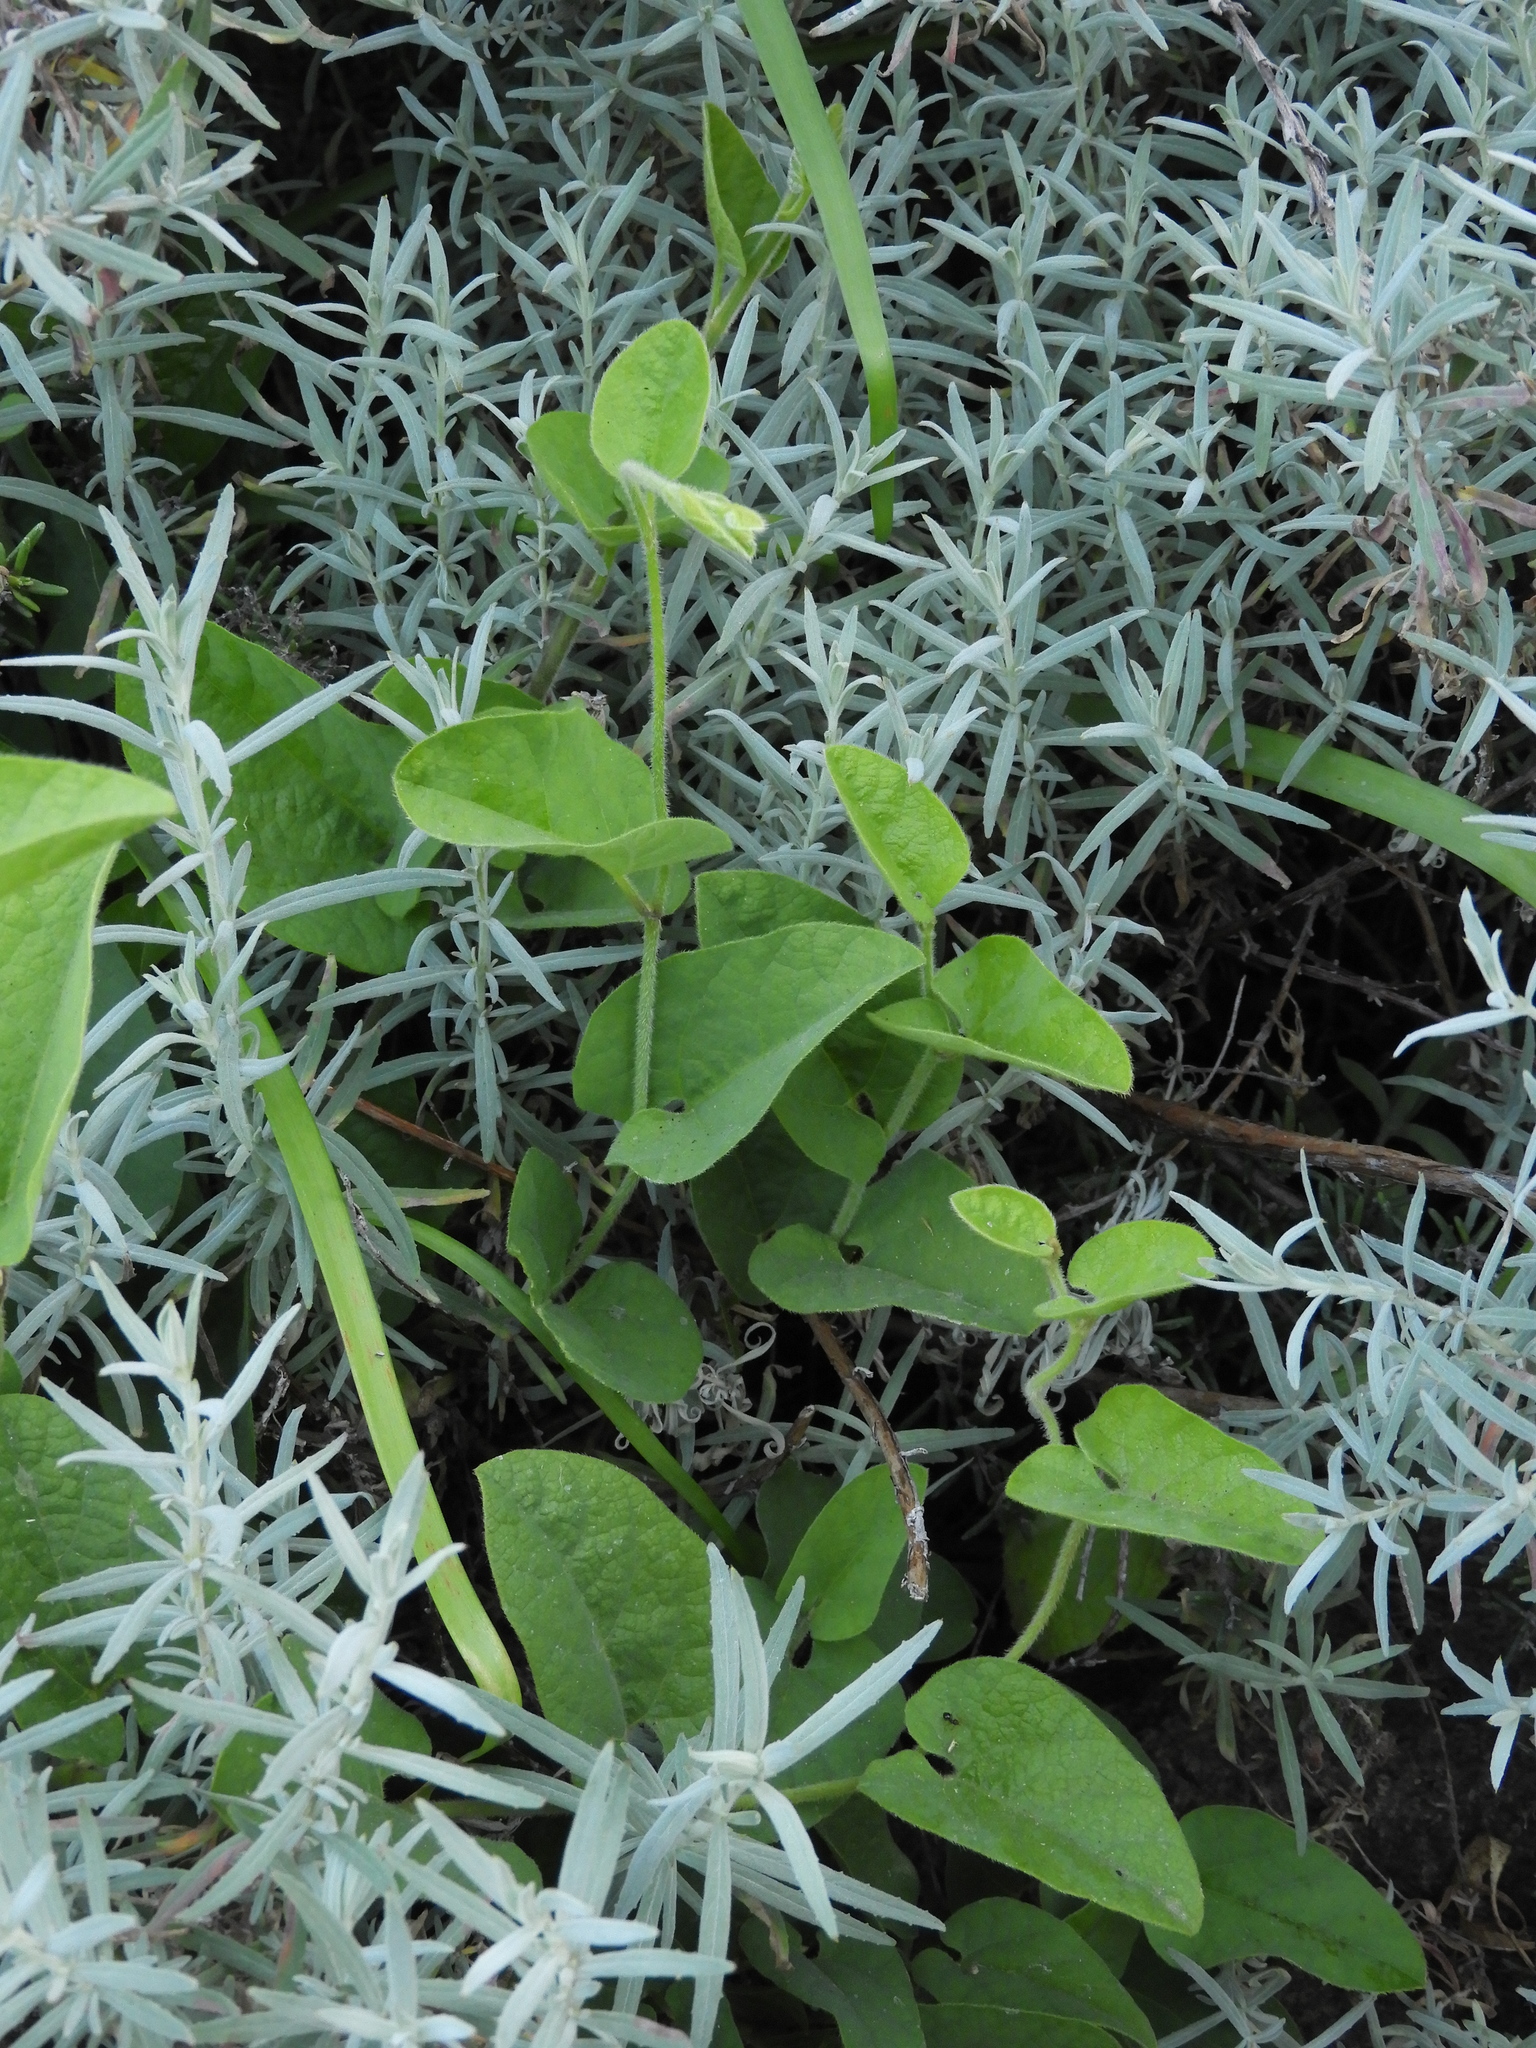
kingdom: Plantae
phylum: Tracheophyta
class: Magnoliopsida
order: Piperales
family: Aristolochiaceae
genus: Isotrema
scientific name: Isotrema californicum
